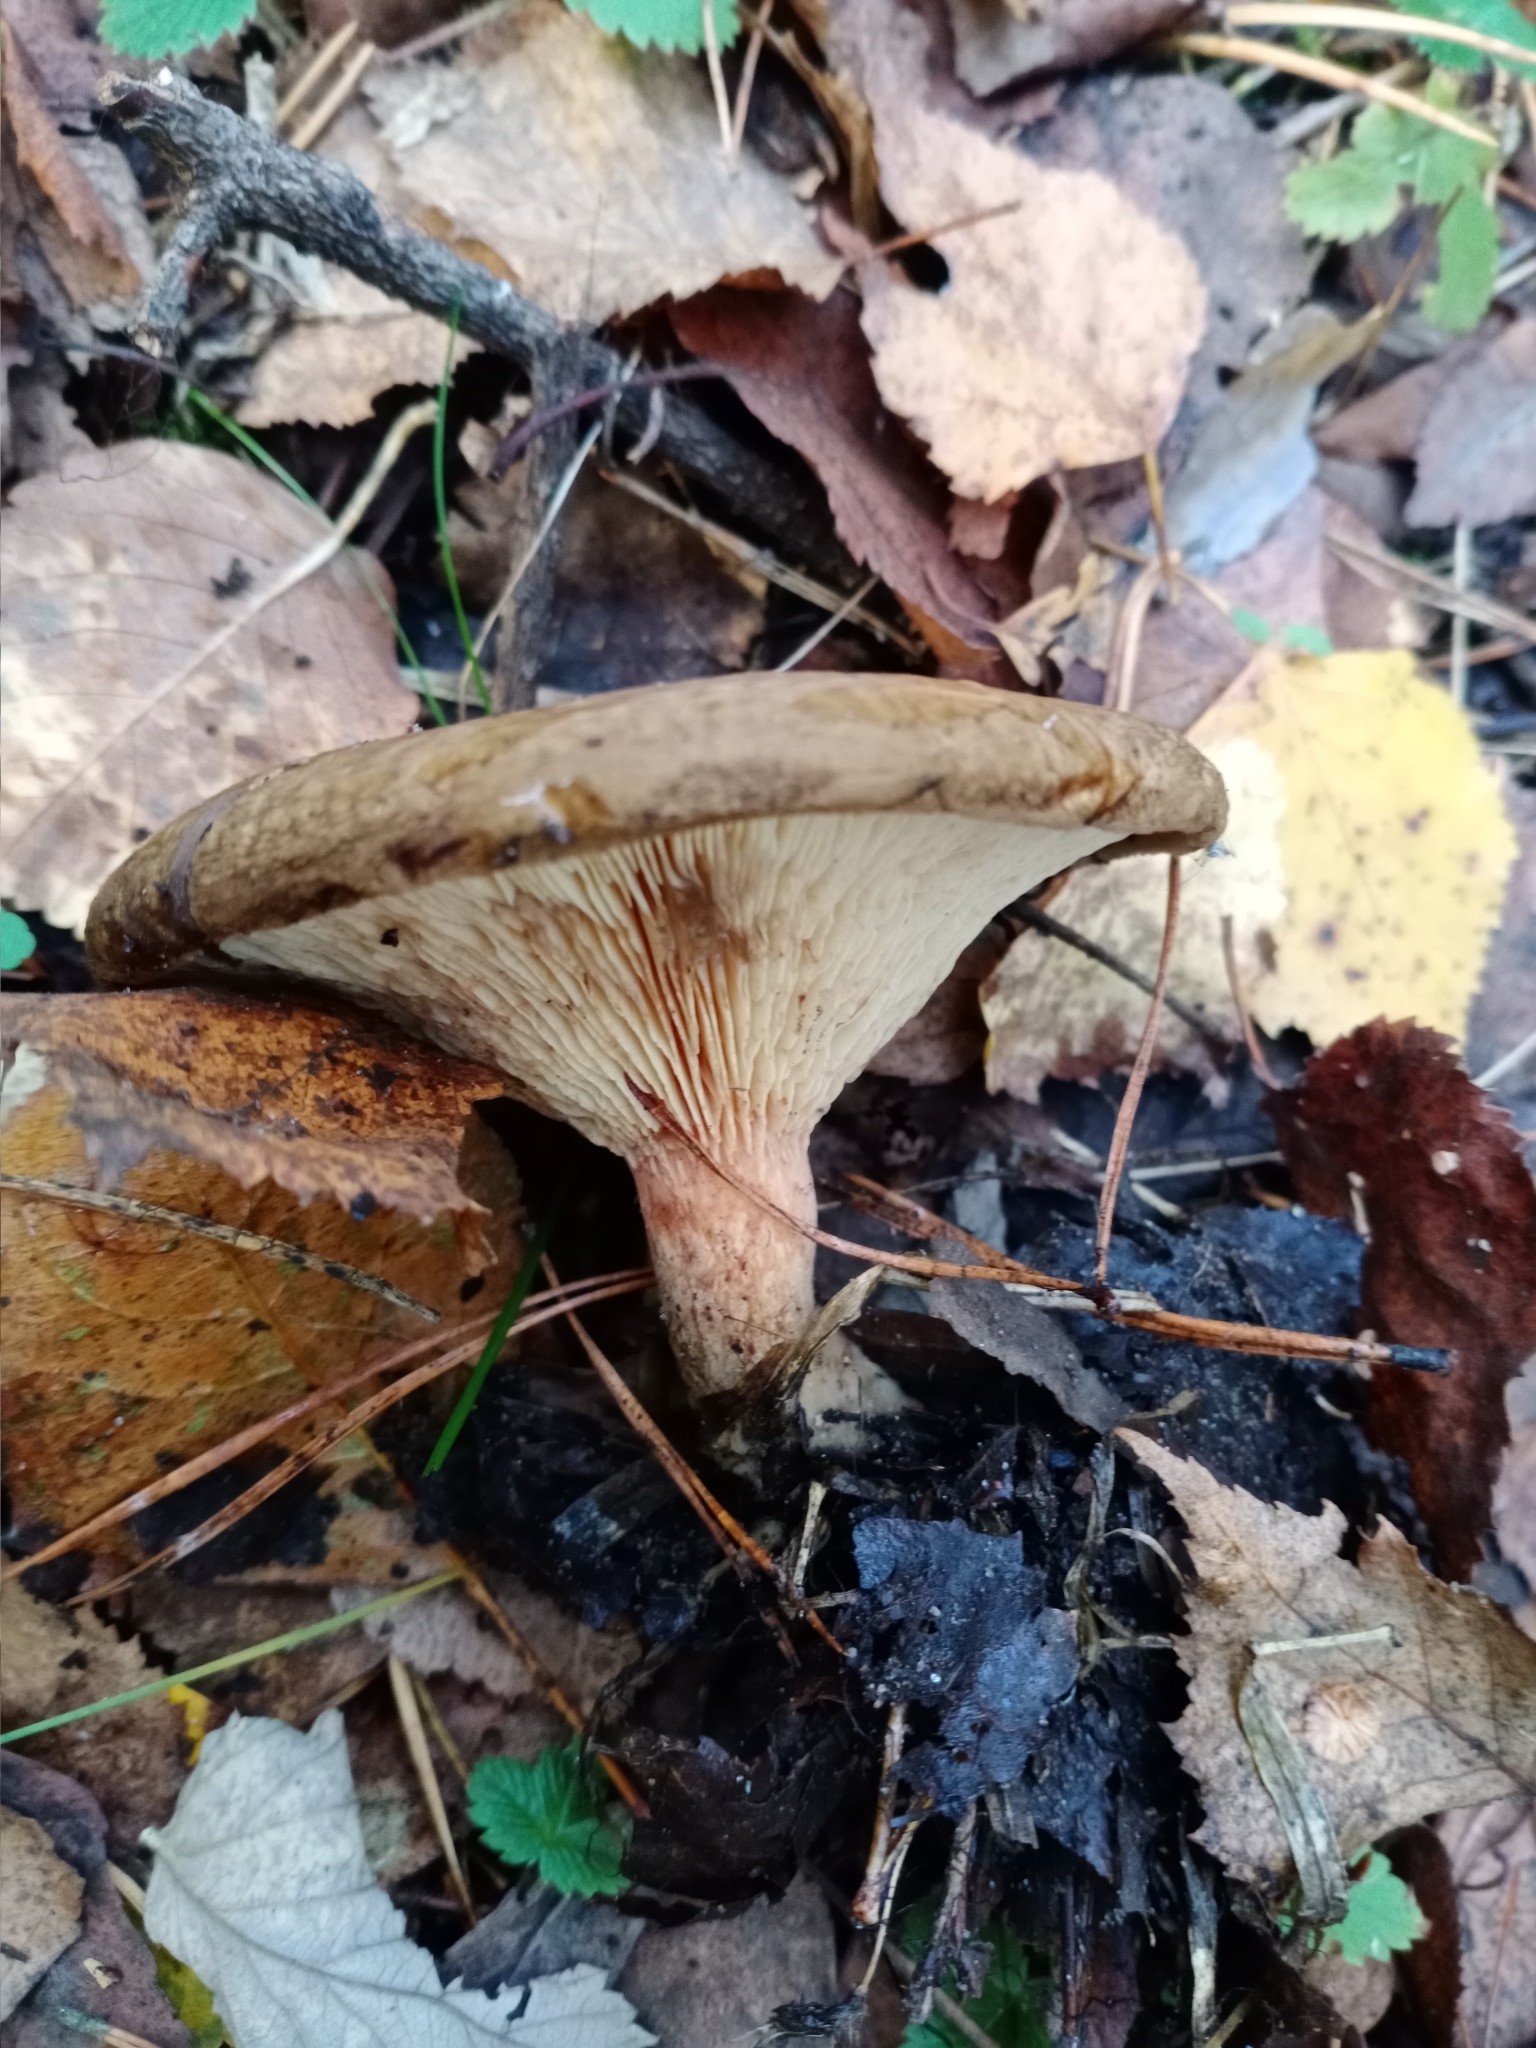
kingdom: Fungi
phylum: Basidiomycota
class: Agaricomycetes
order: Boletales
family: Paxillaceae
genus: Paxillus
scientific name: Paxillus involutus
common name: Brown roll rim
